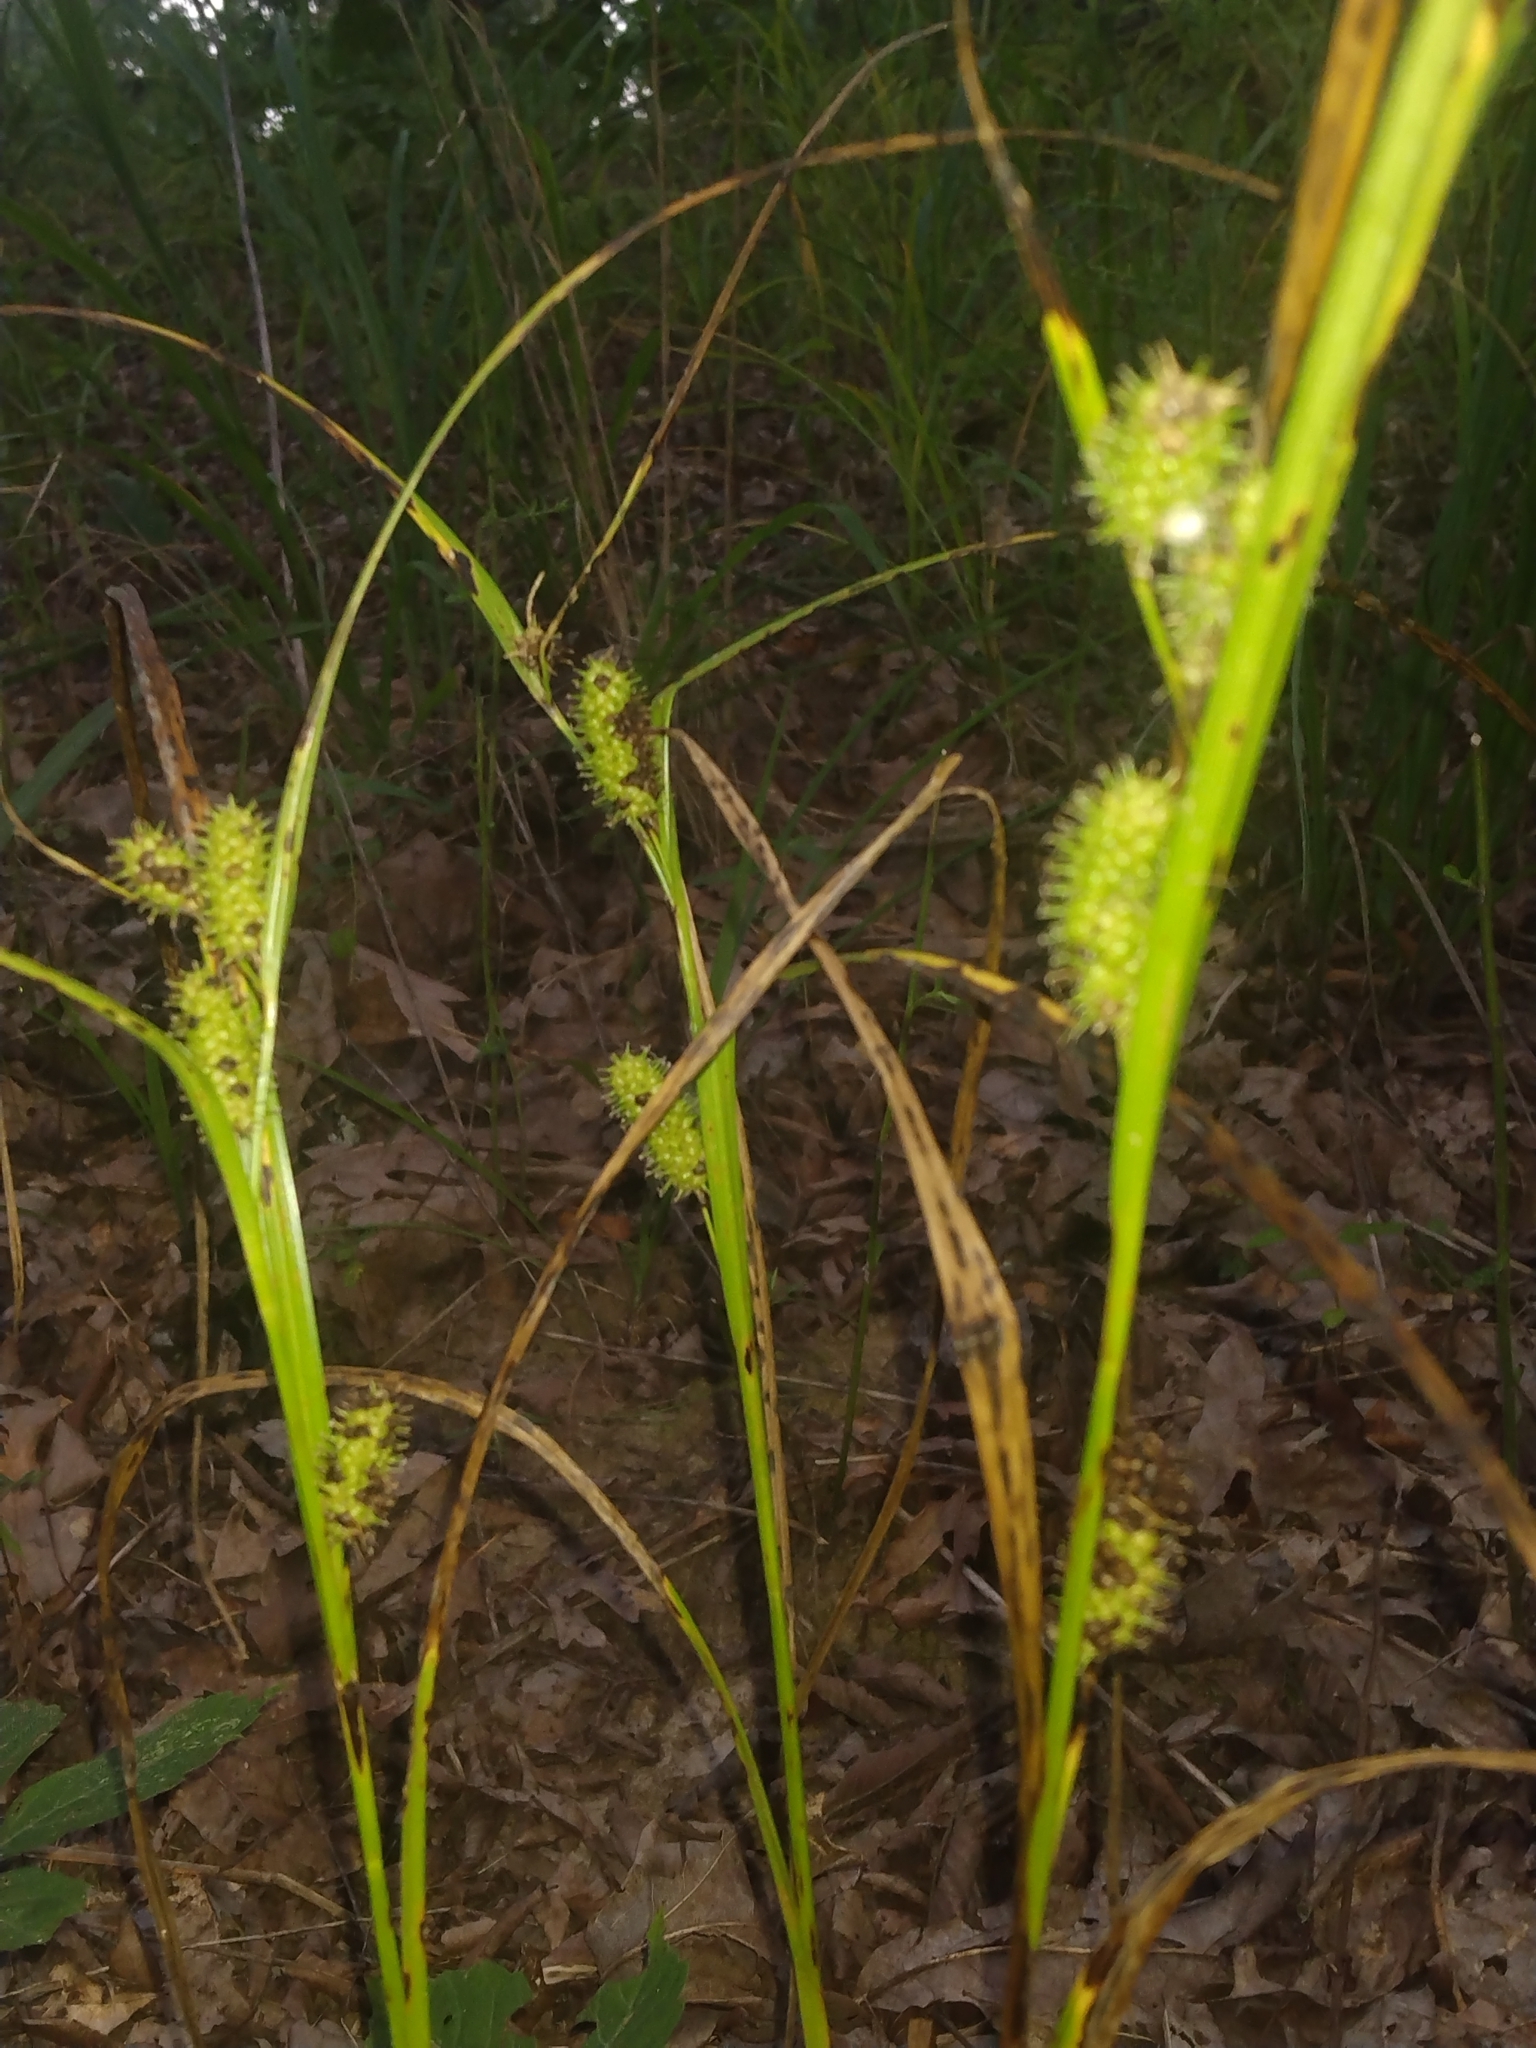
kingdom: Plantae
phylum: Tracheophyta
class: Liliopsida
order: Poales
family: Cyperaceae
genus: Carex
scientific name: Carex aureolensis
